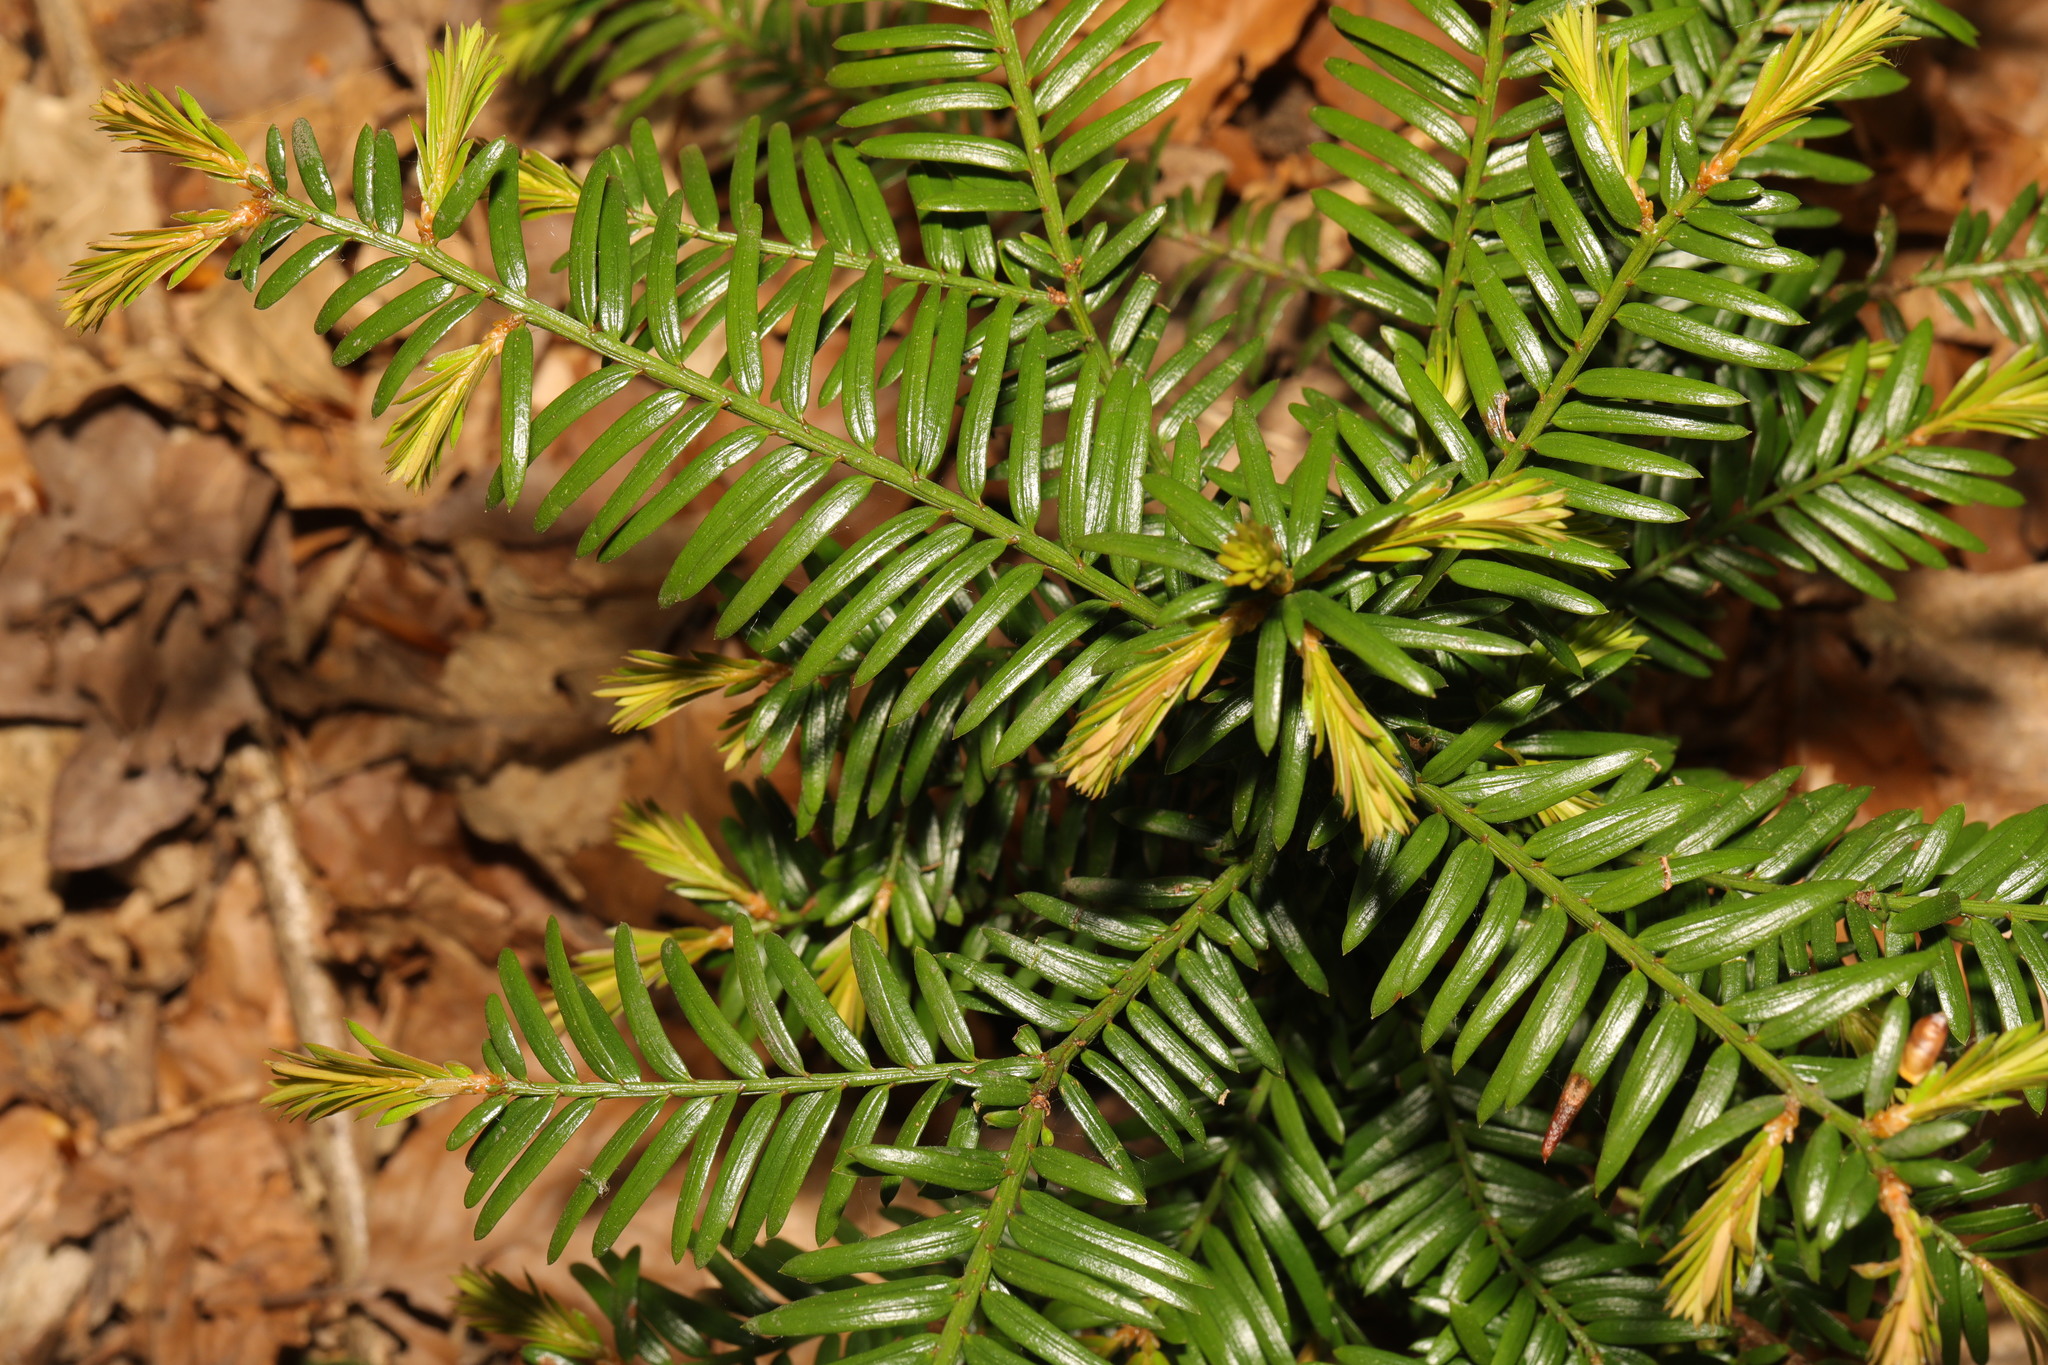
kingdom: Plantae
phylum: Tracheophyta
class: Pinopsida
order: Pinales
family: Taxaceae
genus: Taxus
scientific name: Taxus baccata
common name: Yew
